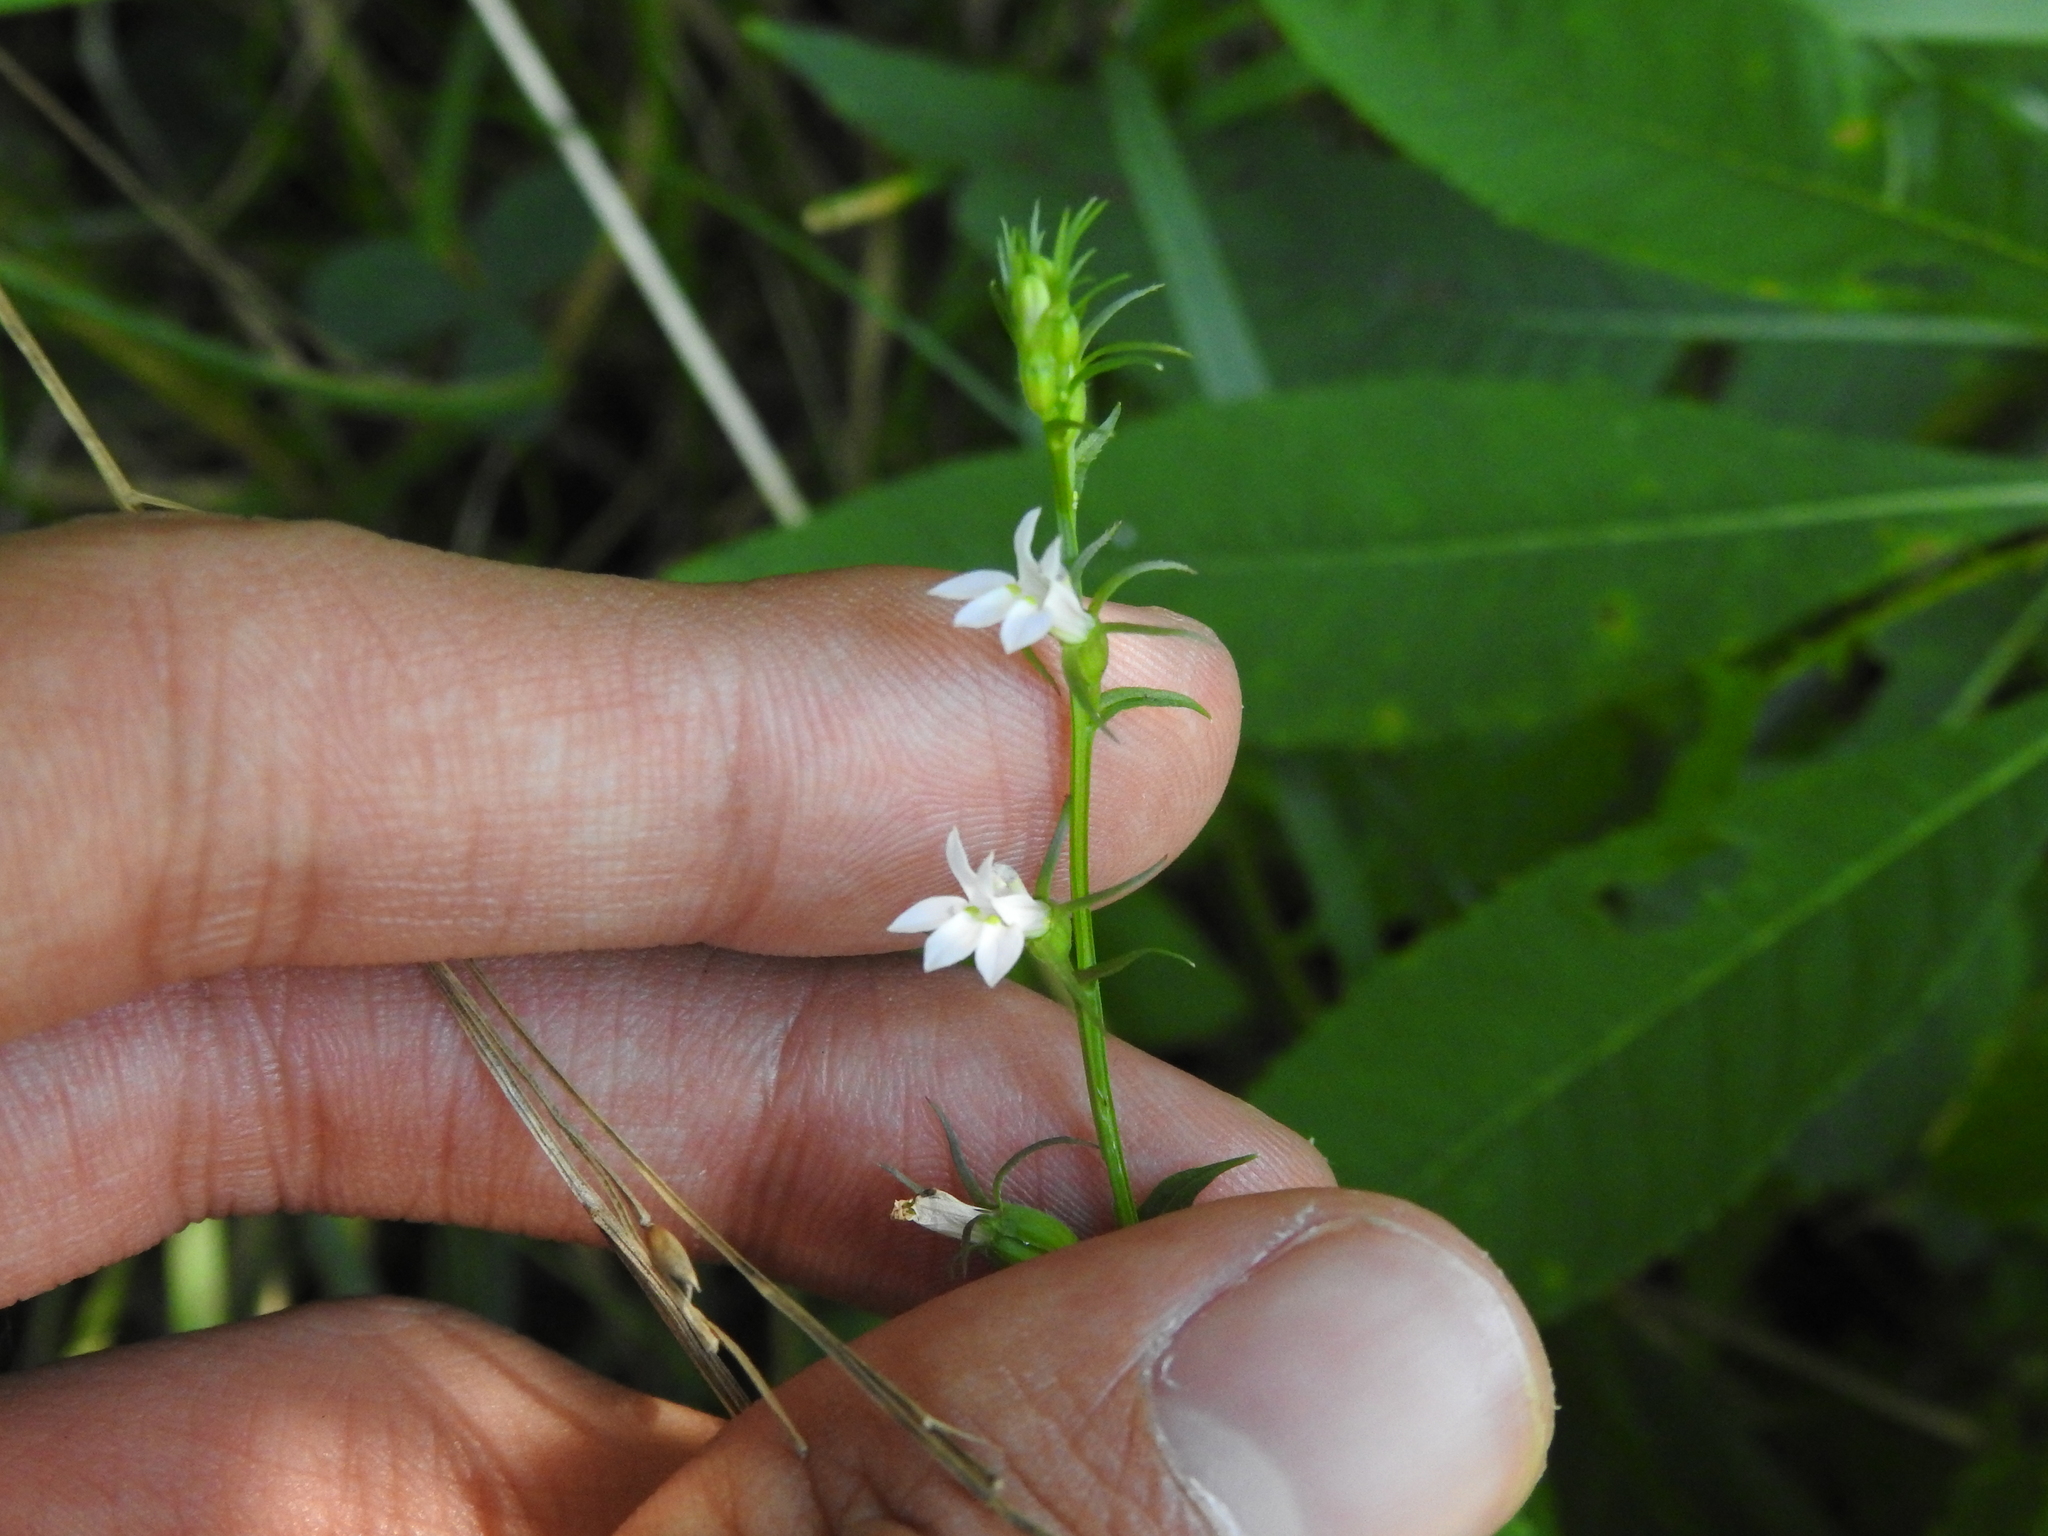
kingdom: Plantae
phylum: Tracheophyta
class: Magnoliopsida
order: Asterales
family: Campanulaceae
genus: Lobelia
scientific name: Lobelia inflata
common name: Indian tobacco
